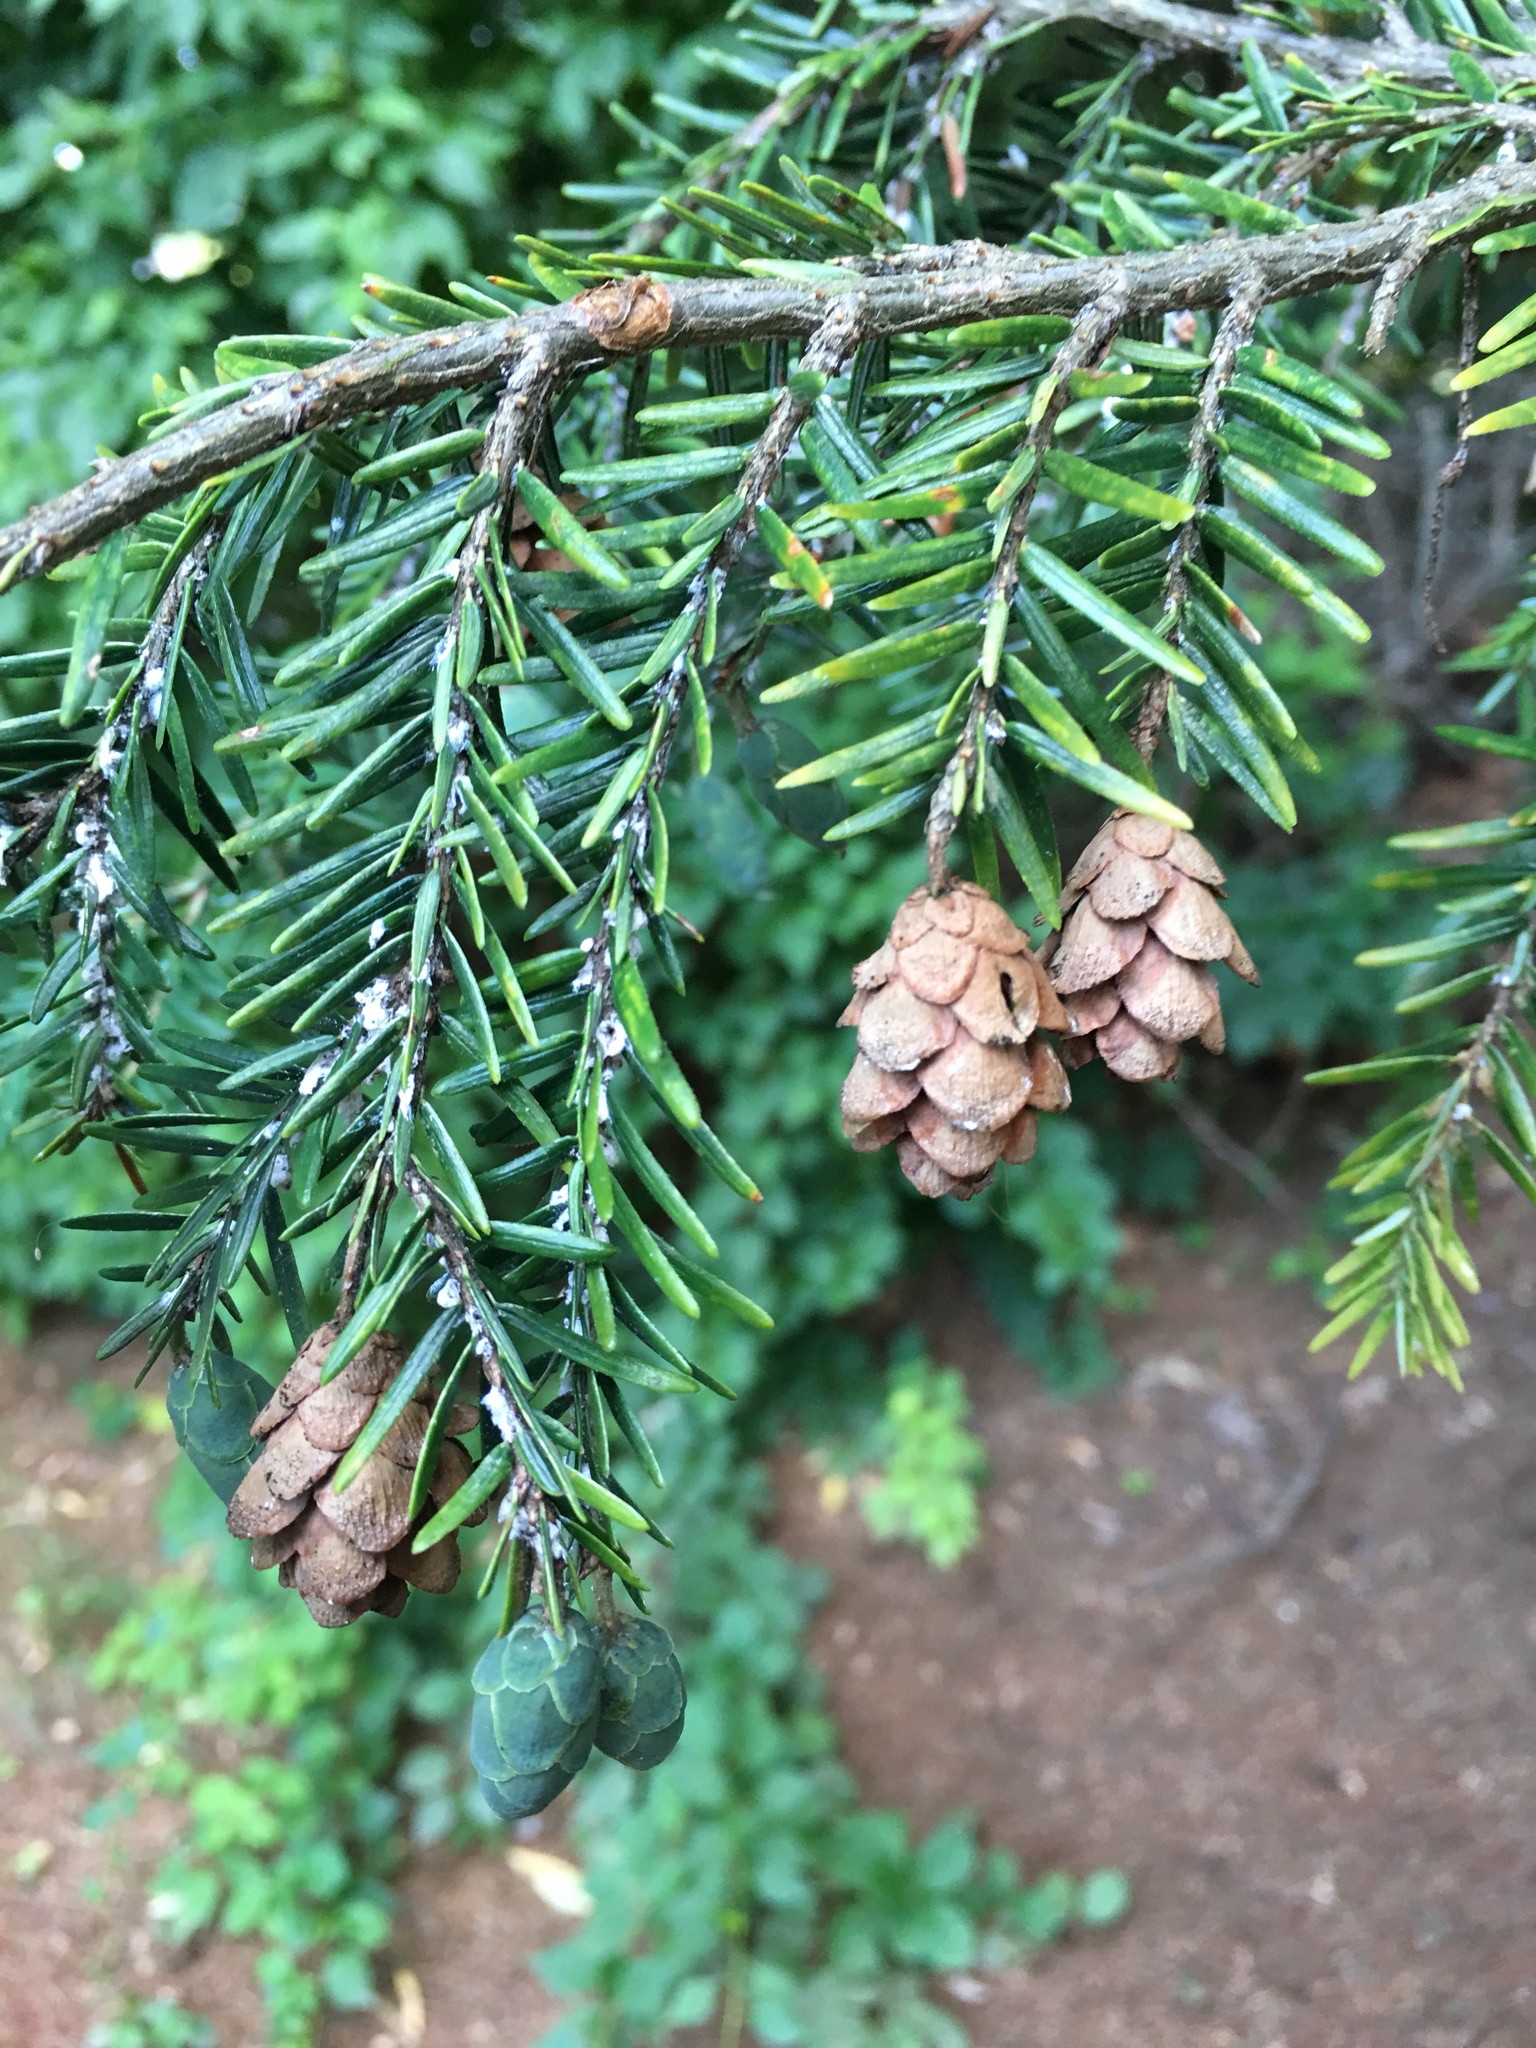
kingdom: Plantae
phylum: Tracheophyta
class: Pinopsida
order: Pinales
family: Pinaceae
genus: Tsuga
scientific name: Tsuga canadensis
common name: Eastern hemlock
